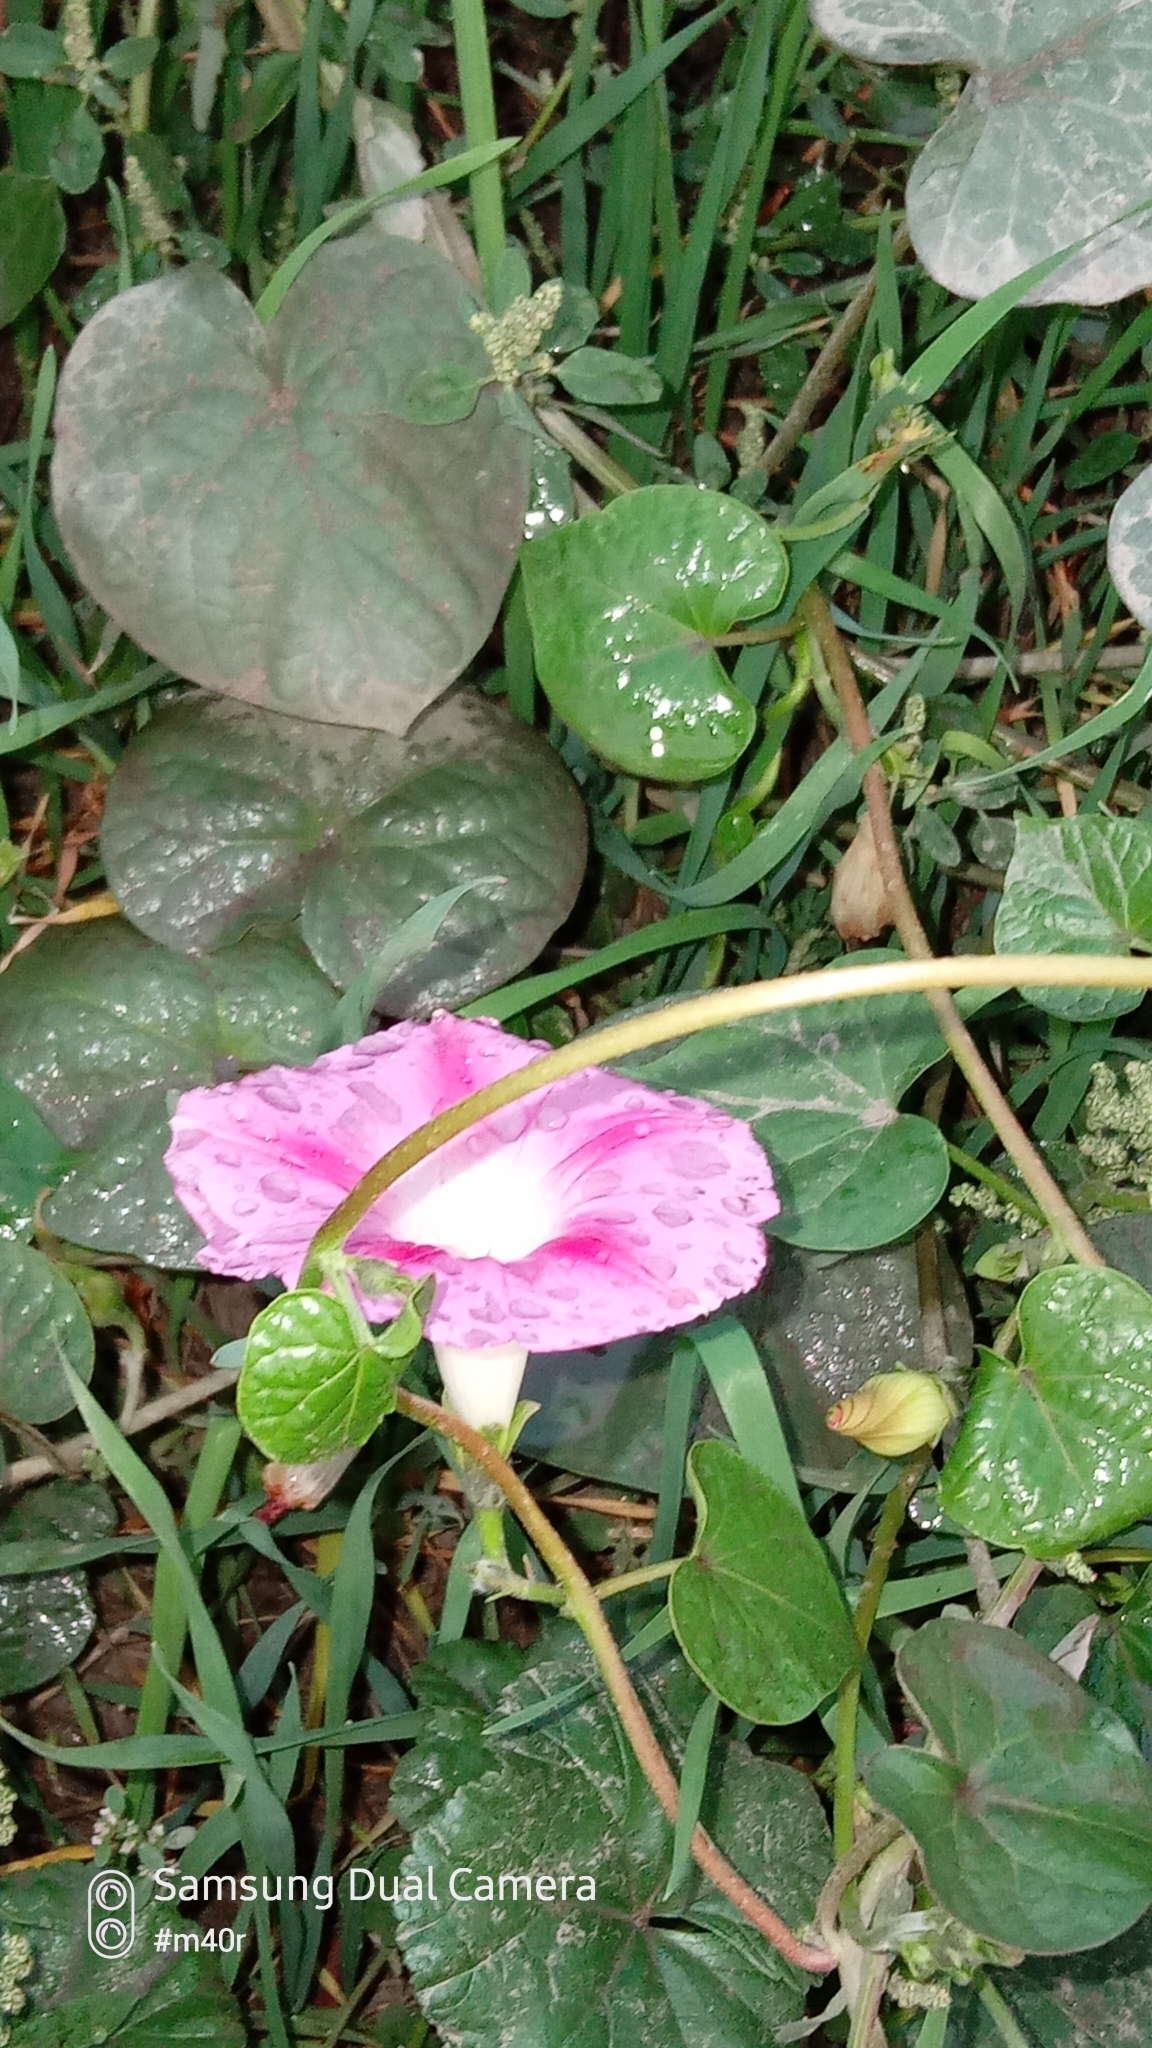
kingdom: Plantae
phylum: Tracheophyta
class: Magnoliopsida
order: Solanales
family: Convolvulaceae
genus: Ipomoea
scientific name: Ipomoea purpurea
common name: Common morning-glory
